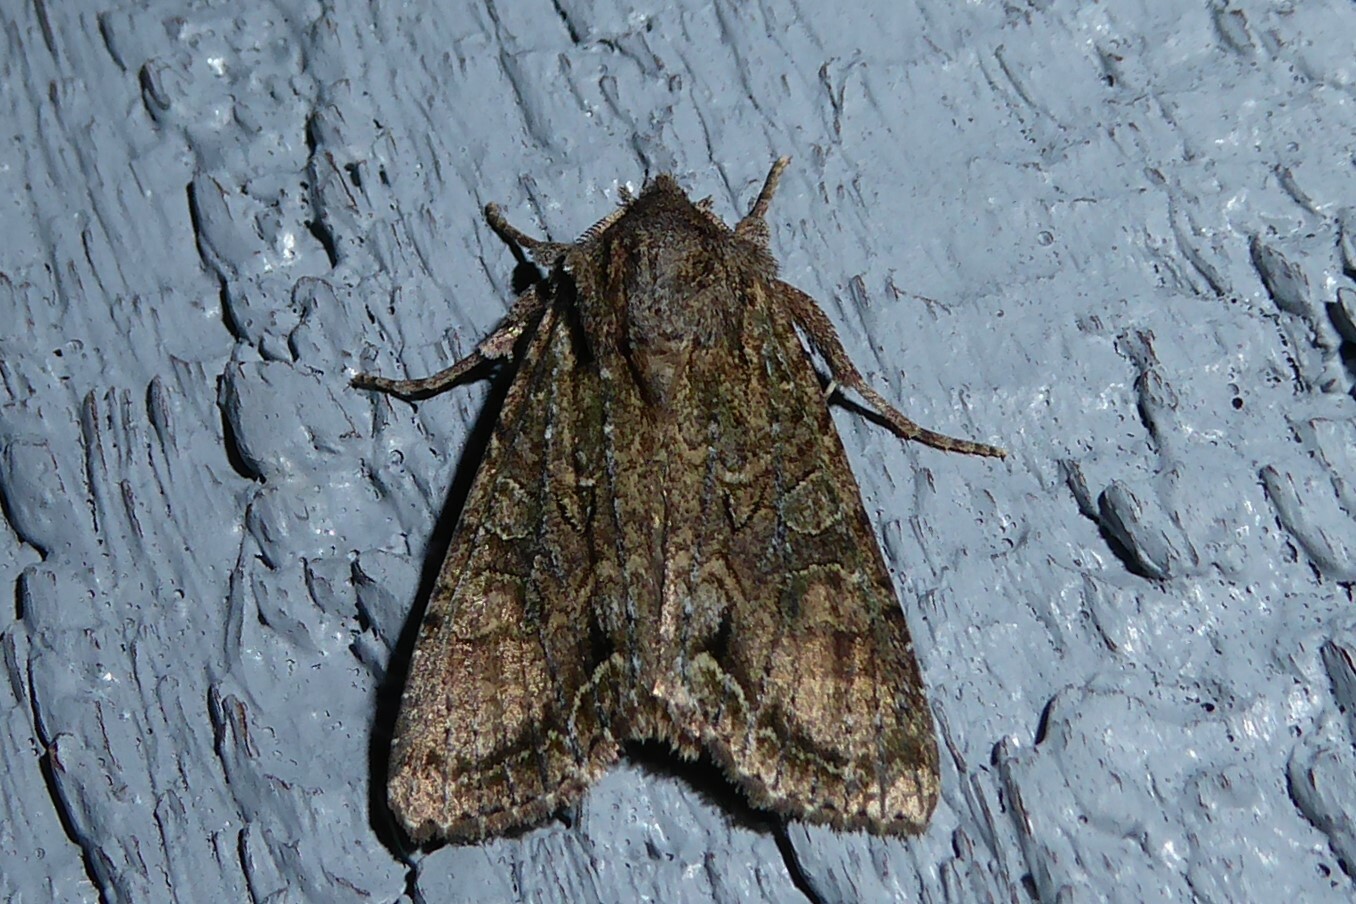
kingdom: Animalia
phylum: Arthropoda
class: Insecta
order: Lepidoptera
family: Noctuidae
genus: Ichneutica
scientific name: Ichneutica mutans
